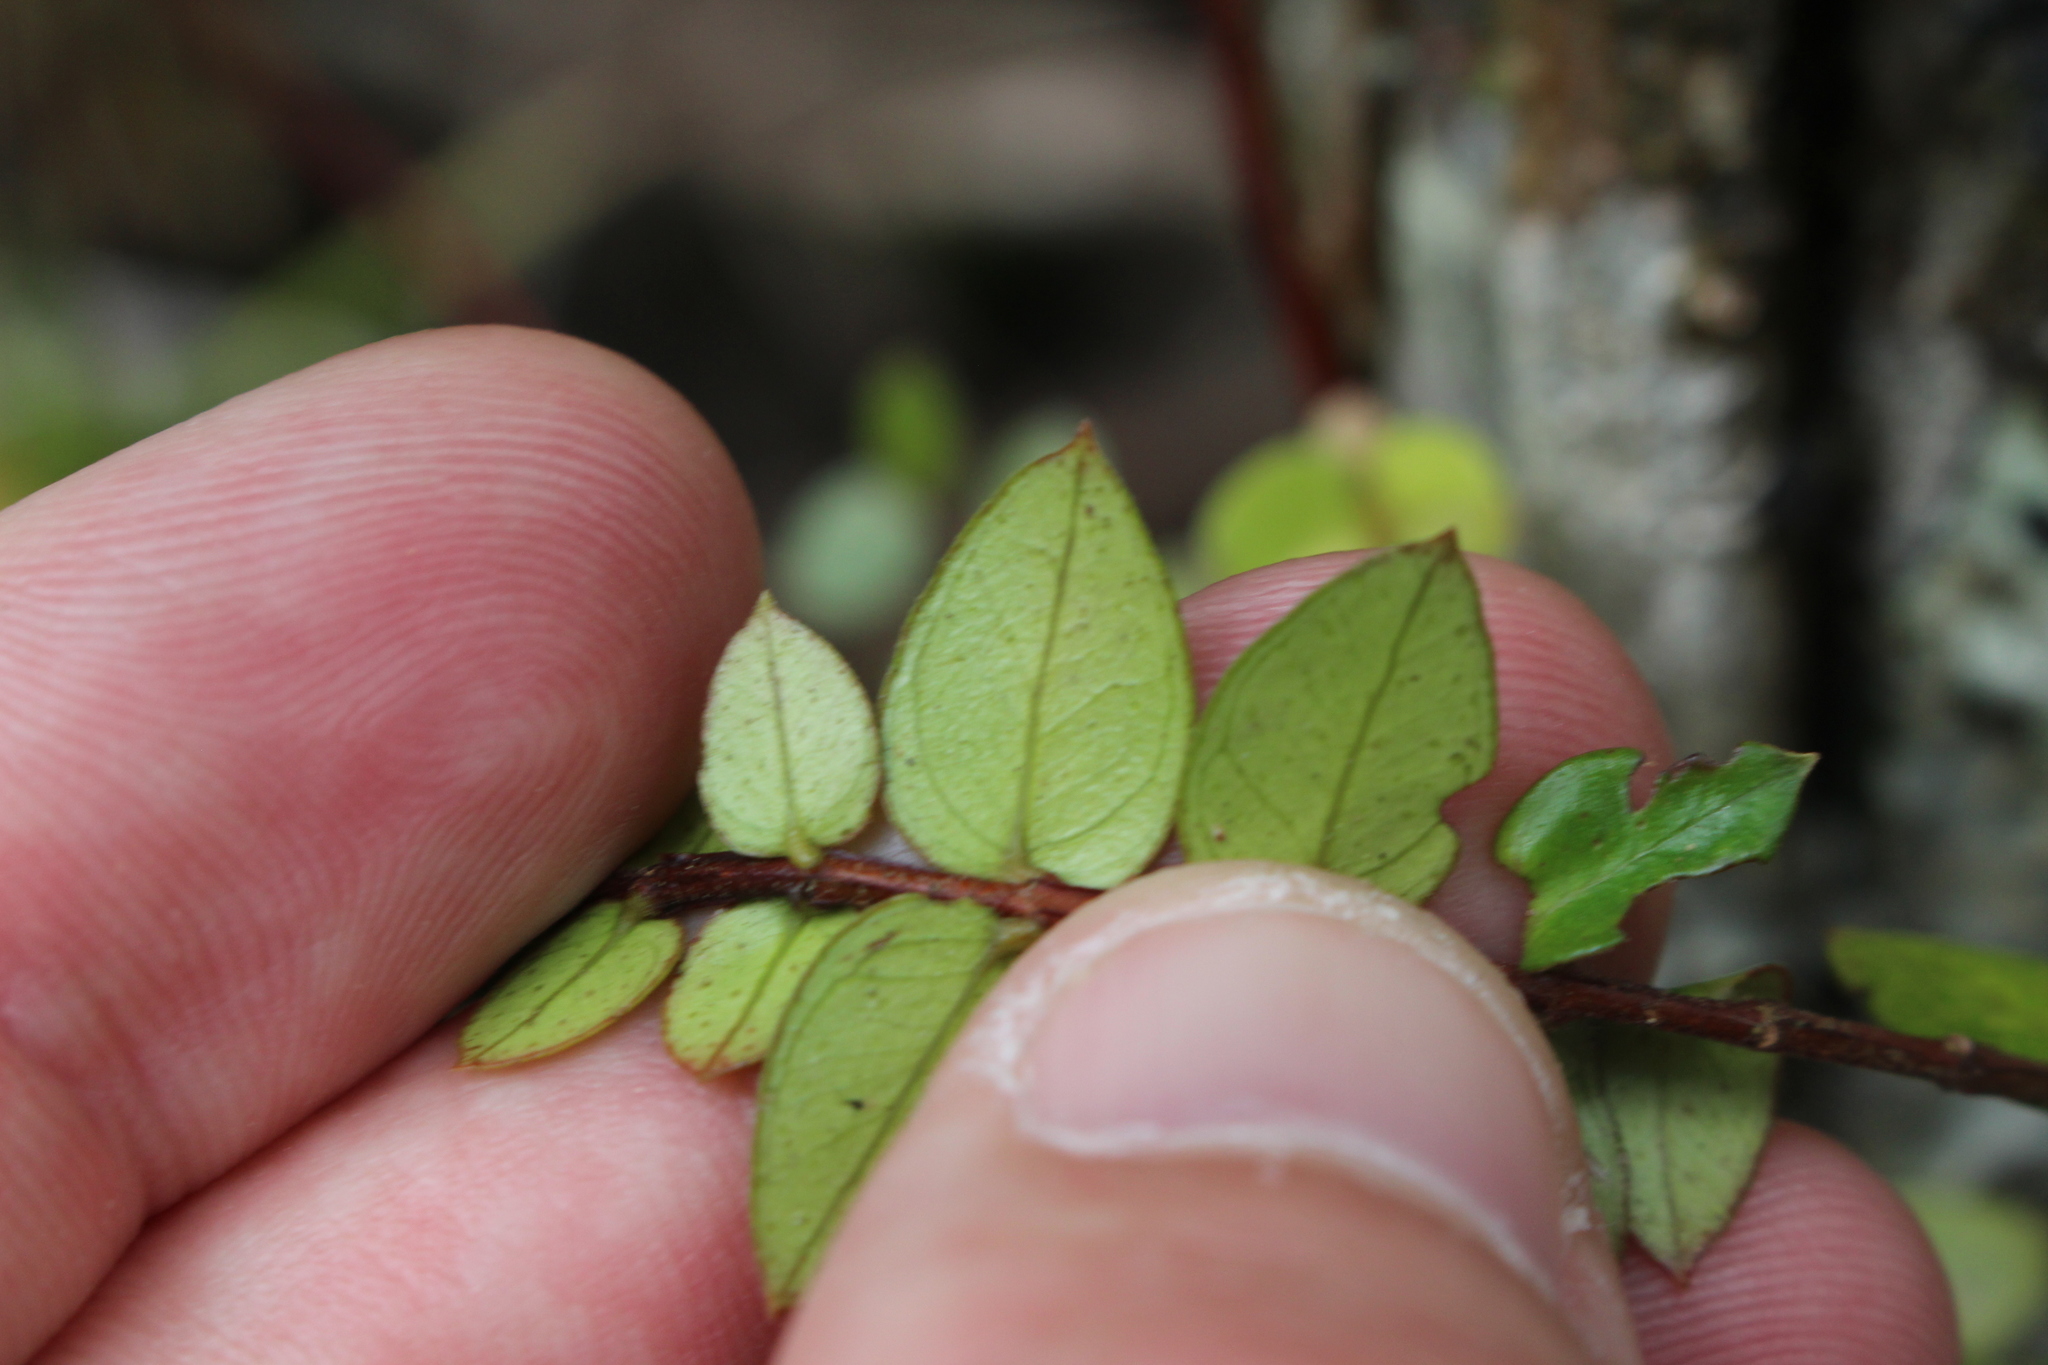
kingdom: Plantae
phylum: Tracheophyta
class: Magnoliopsida
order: Myrtales
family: Myrtaceae
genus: Metrosideros
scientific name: Metrosideros diffusa
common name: Small ratavine
